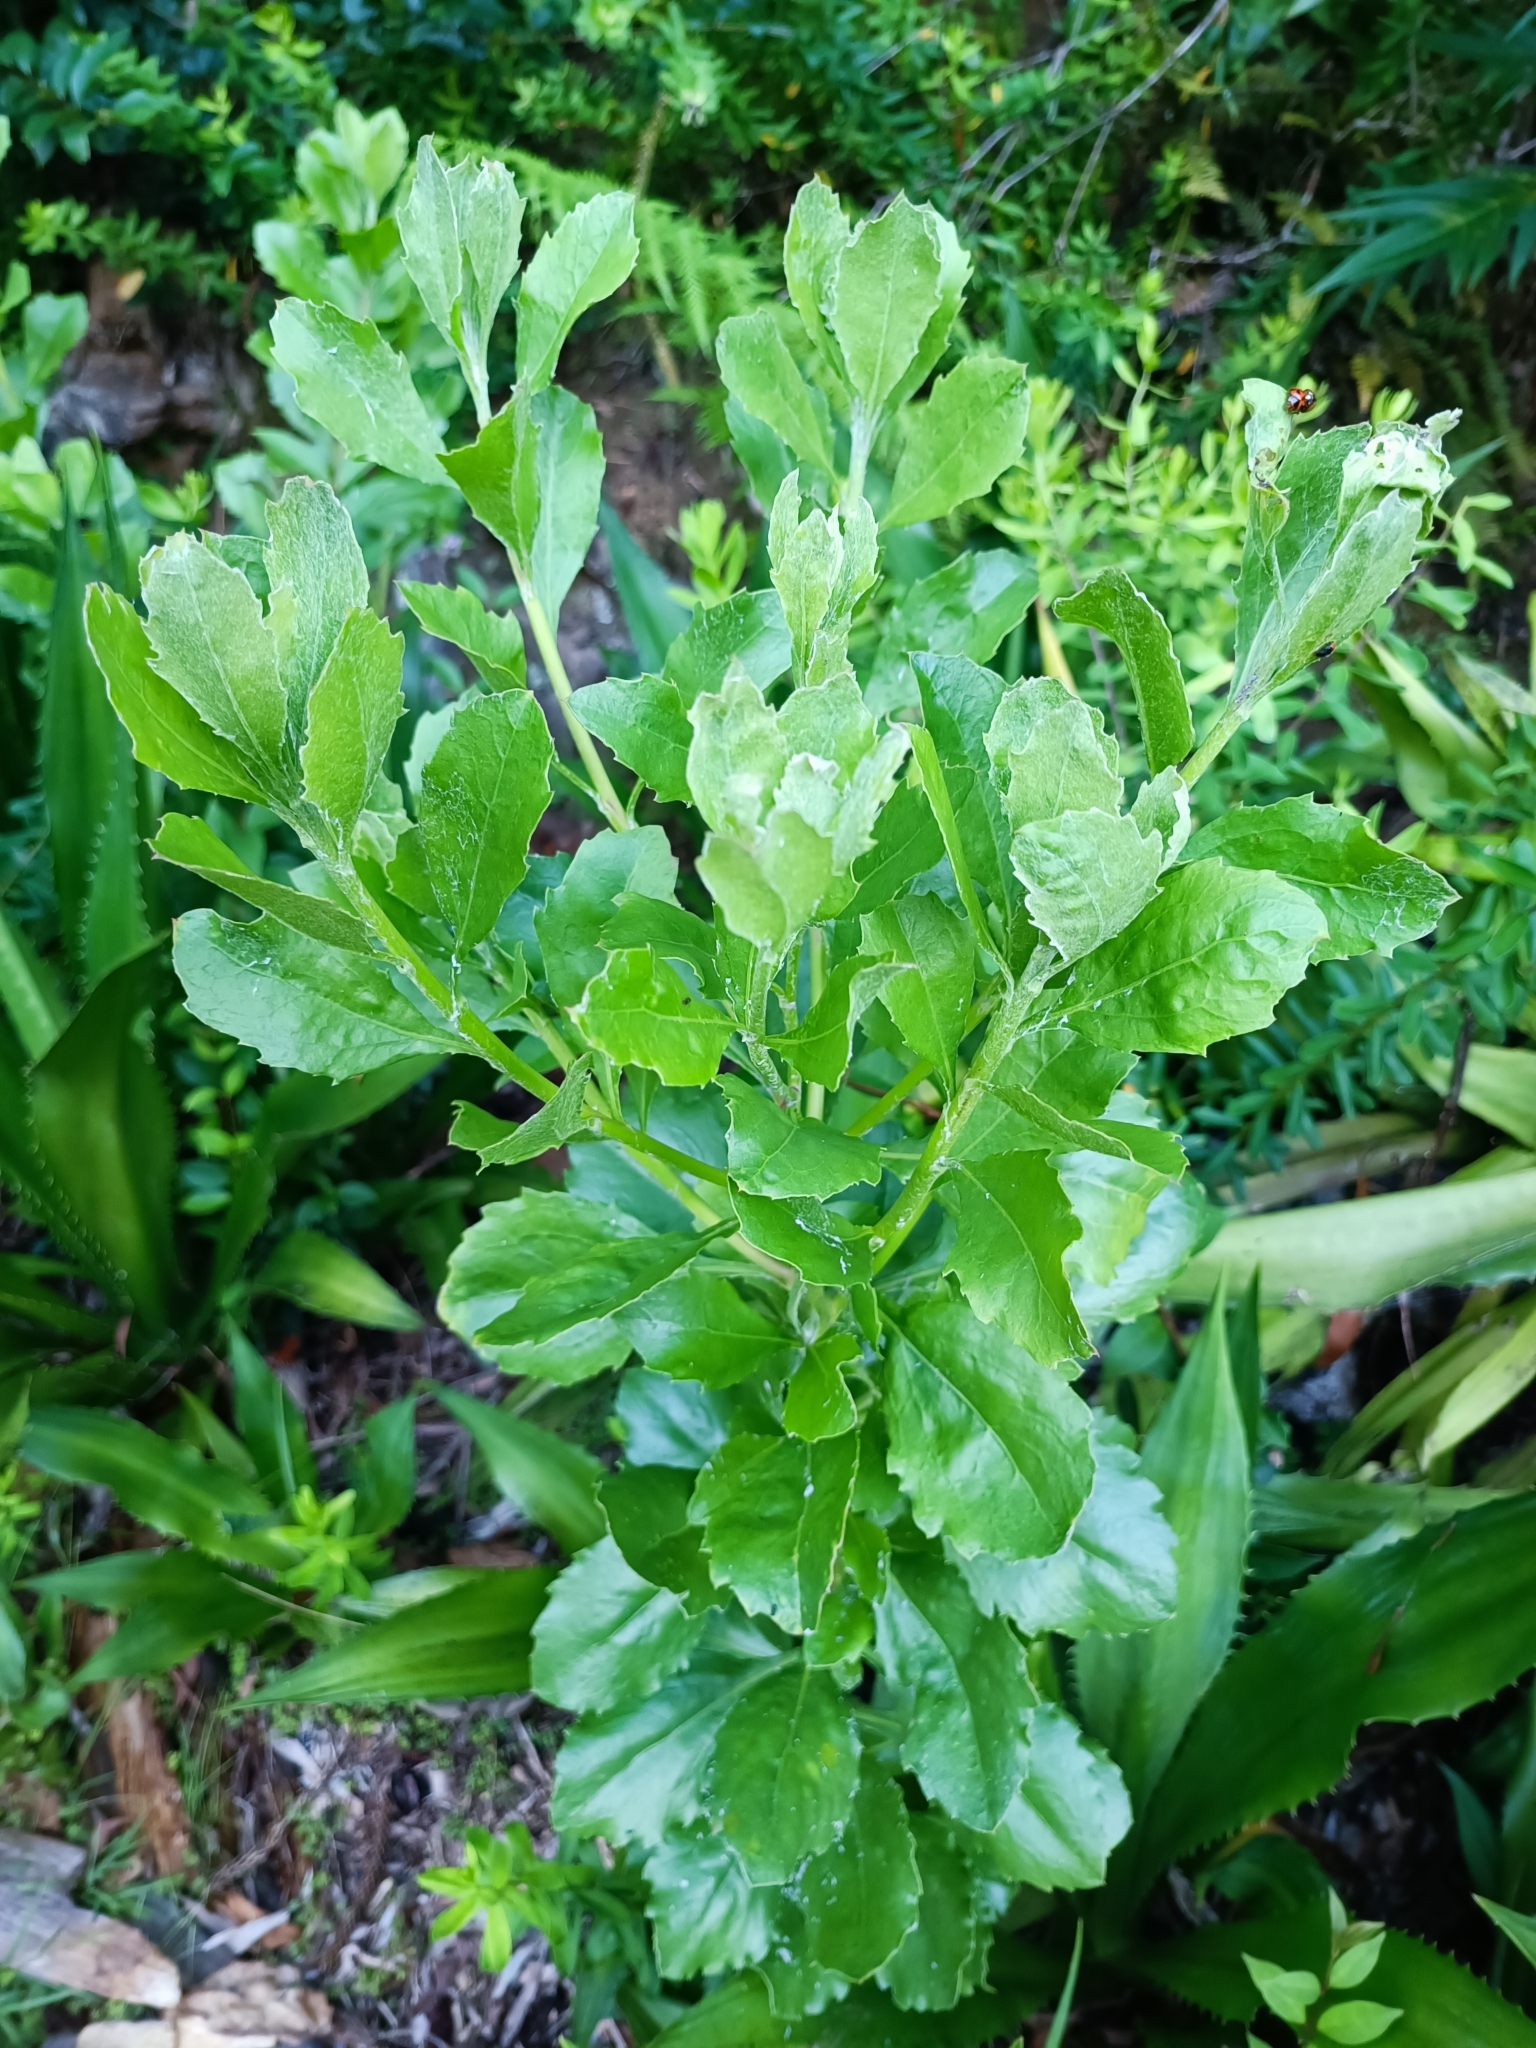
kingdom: Plantae
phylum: Tracheophyta
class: Magnoliopsida
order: Asterales
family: Asteraceae
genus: Osteospermum
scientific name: Osteospermum moniliferum
